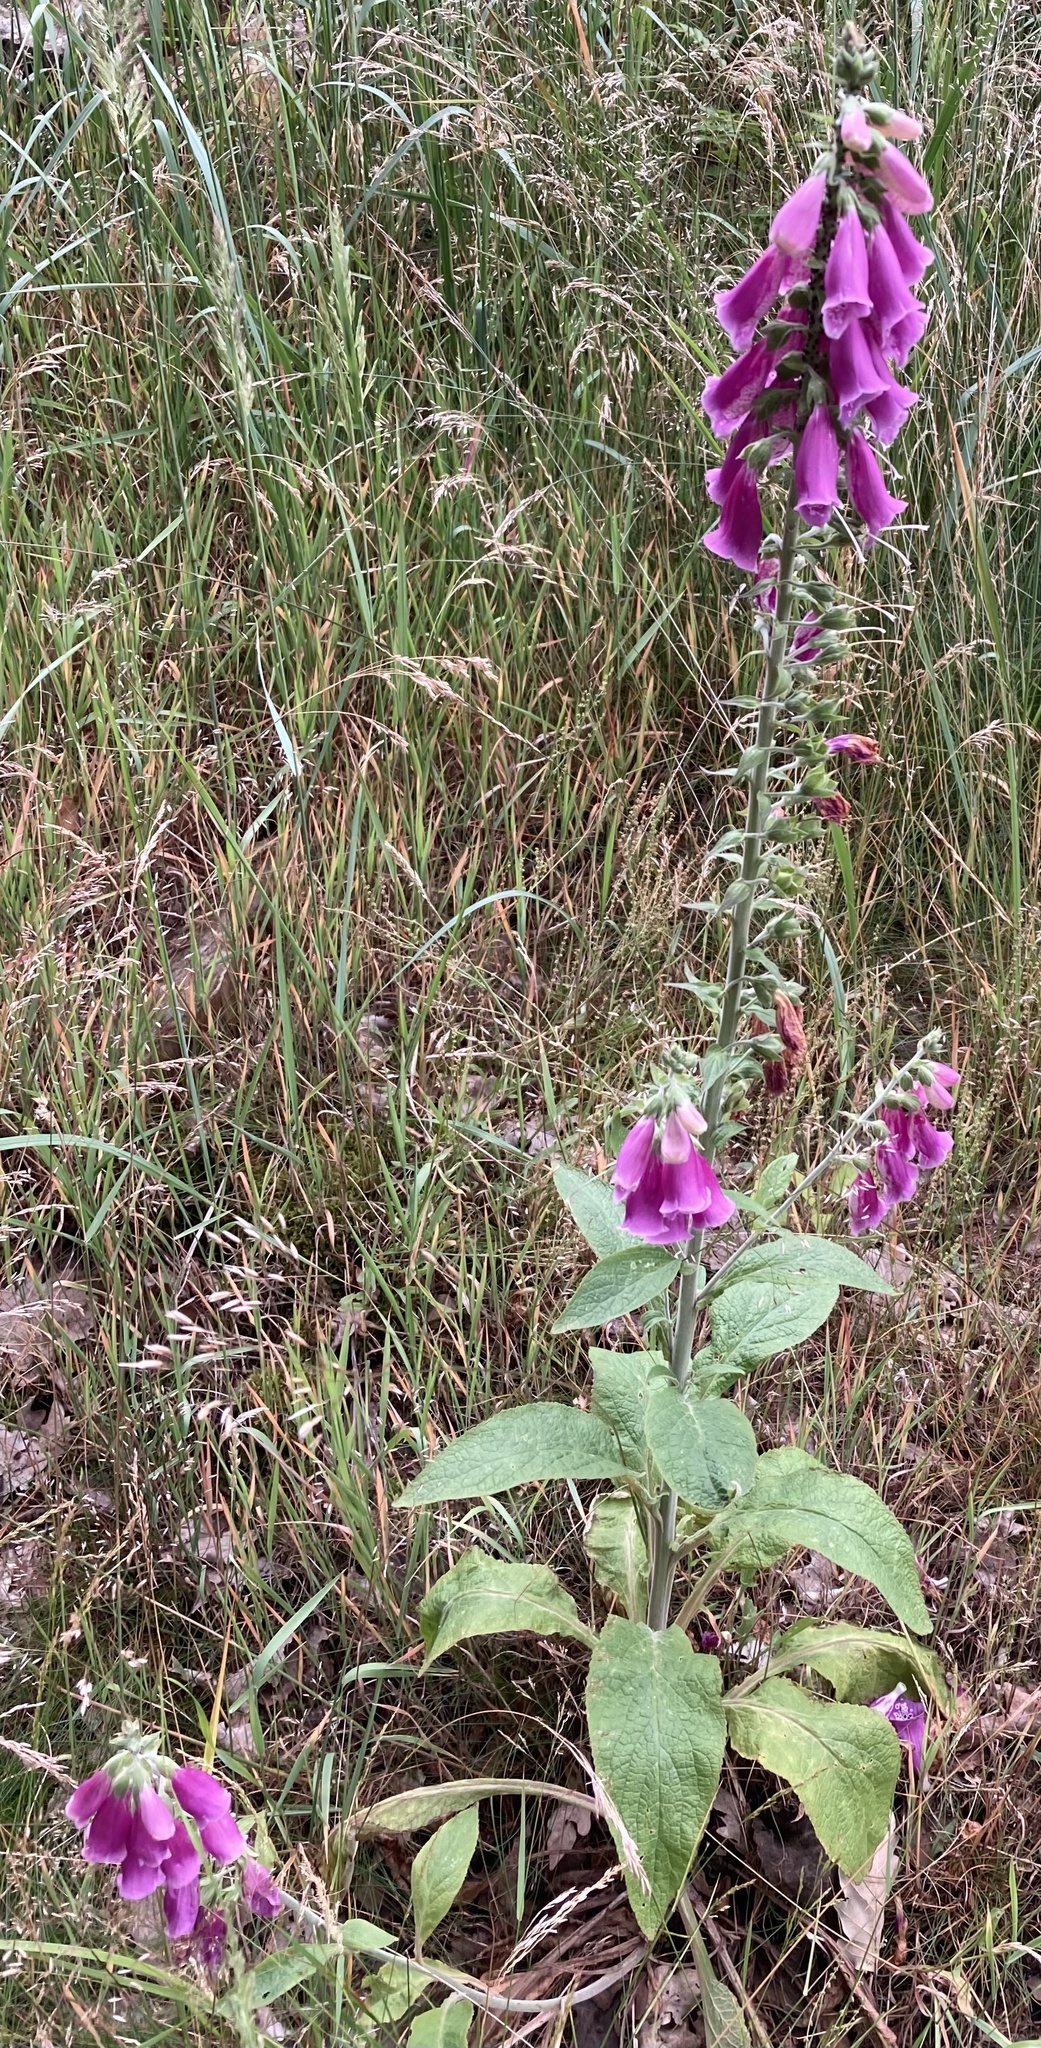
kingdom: Plantae
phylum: Tracheophyta
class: Magnoliopsida
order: Lamiales
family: Plantaginaceae
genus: Digitalis
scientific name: Digitalis purpurea
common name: Foxglove
